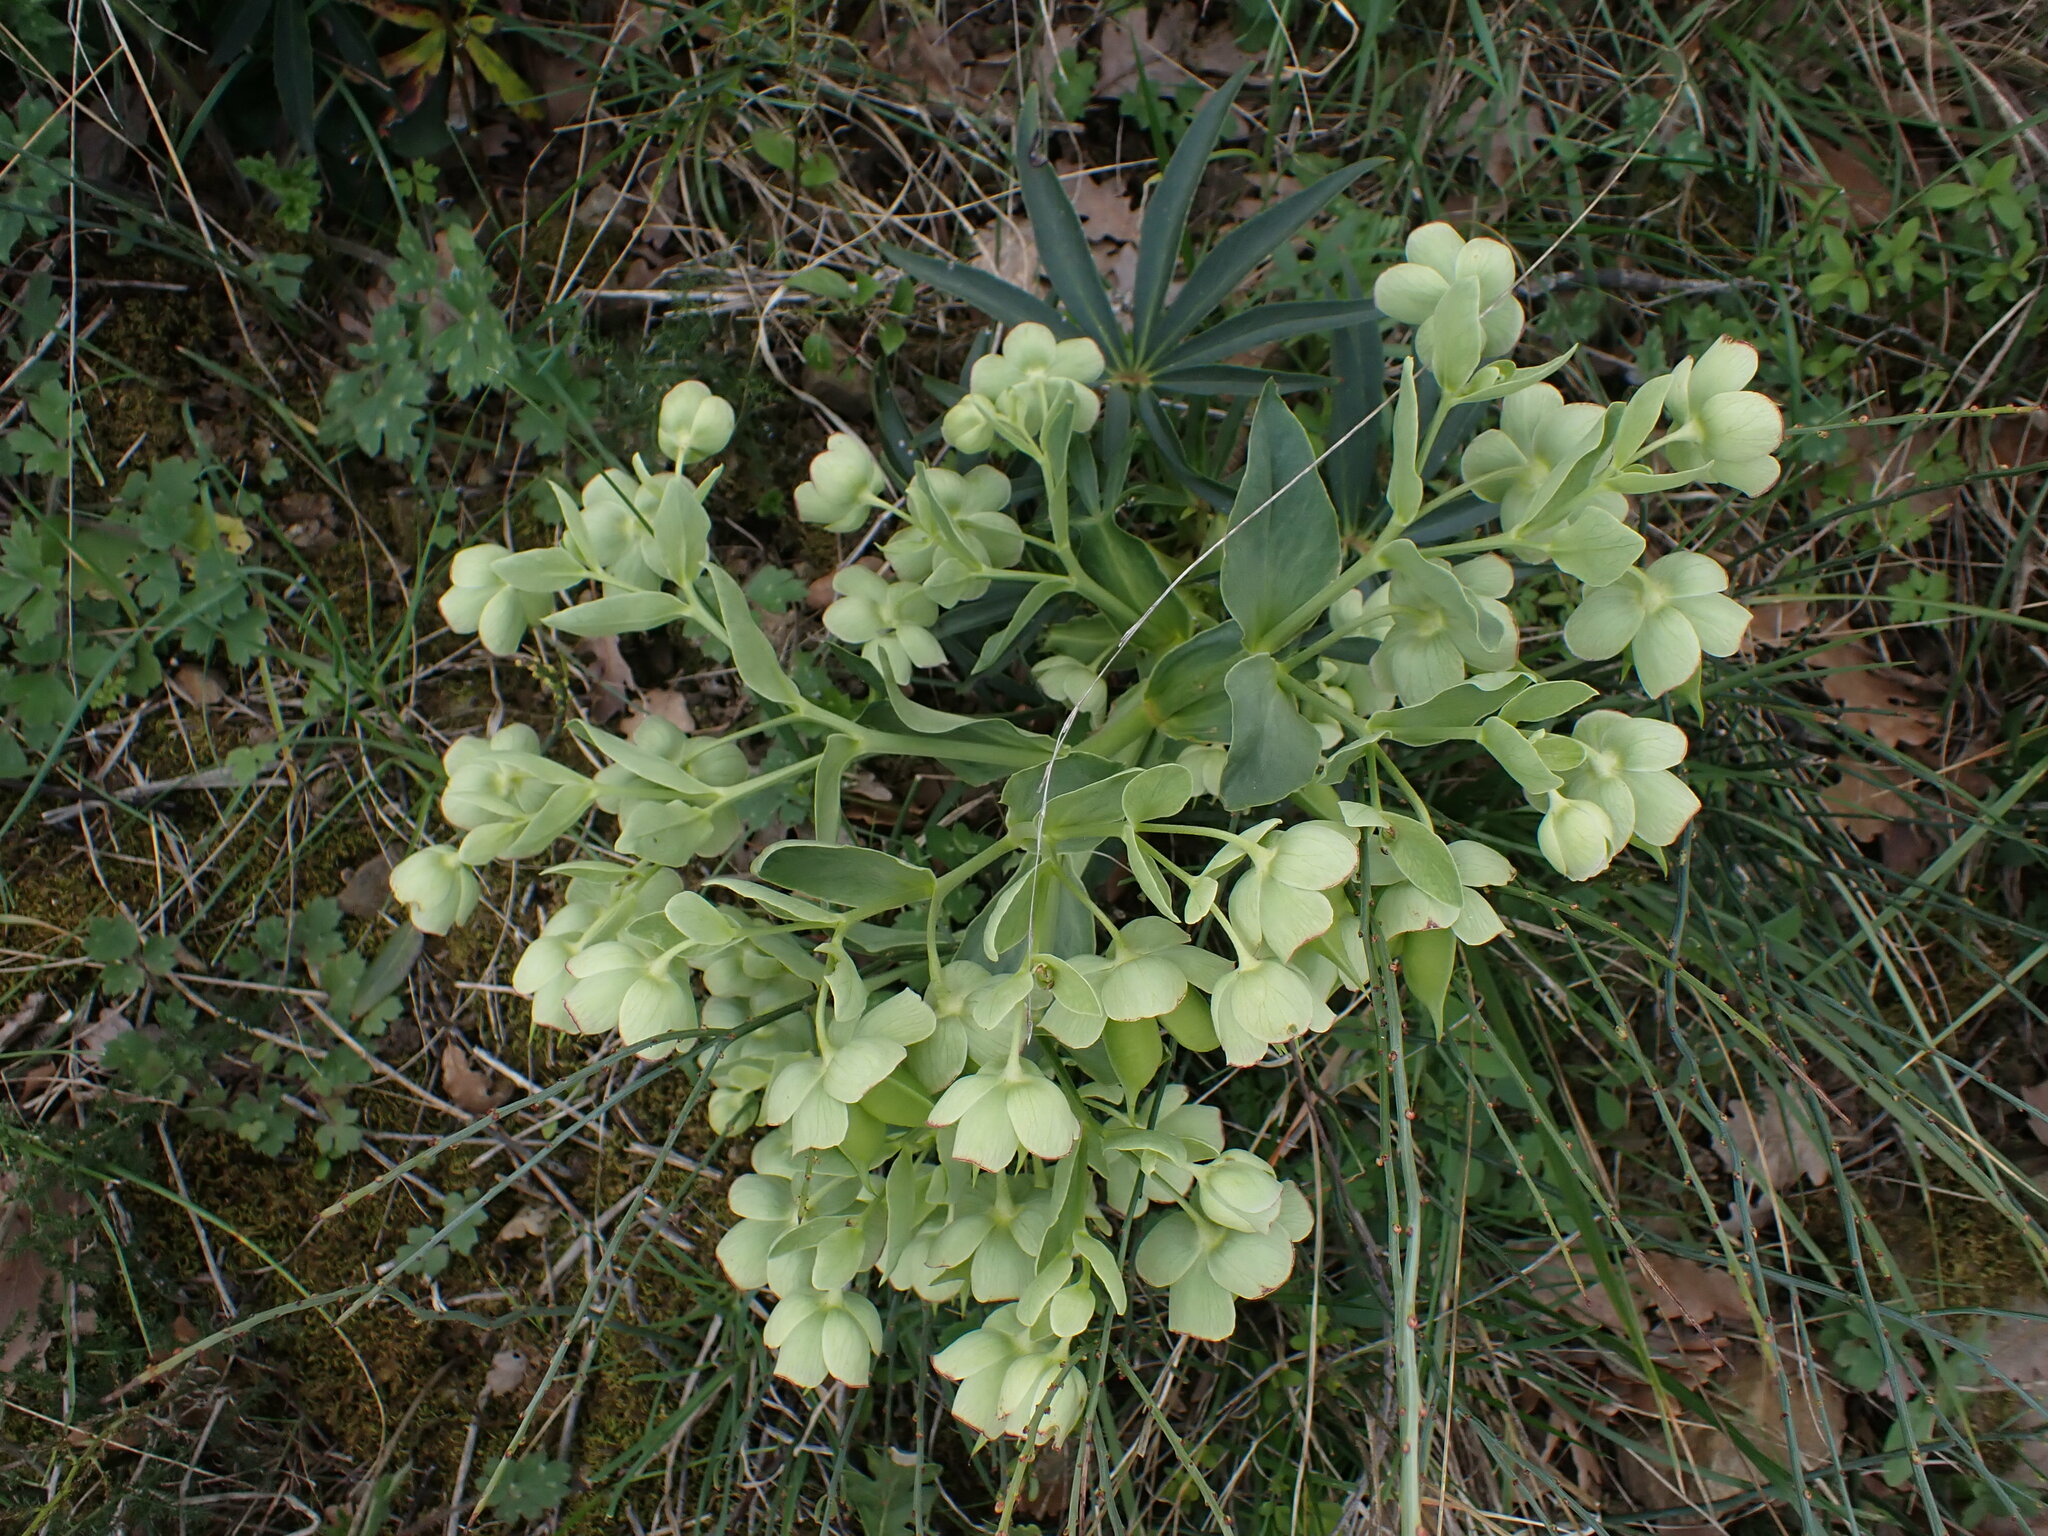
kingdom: Plantae
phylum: Tracheophyta
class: Magnoliopsida
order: Ranunculales
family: Ranunculaceae
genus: Helleborus
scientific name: Helleborus foetidus
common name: Stinking hellebore
